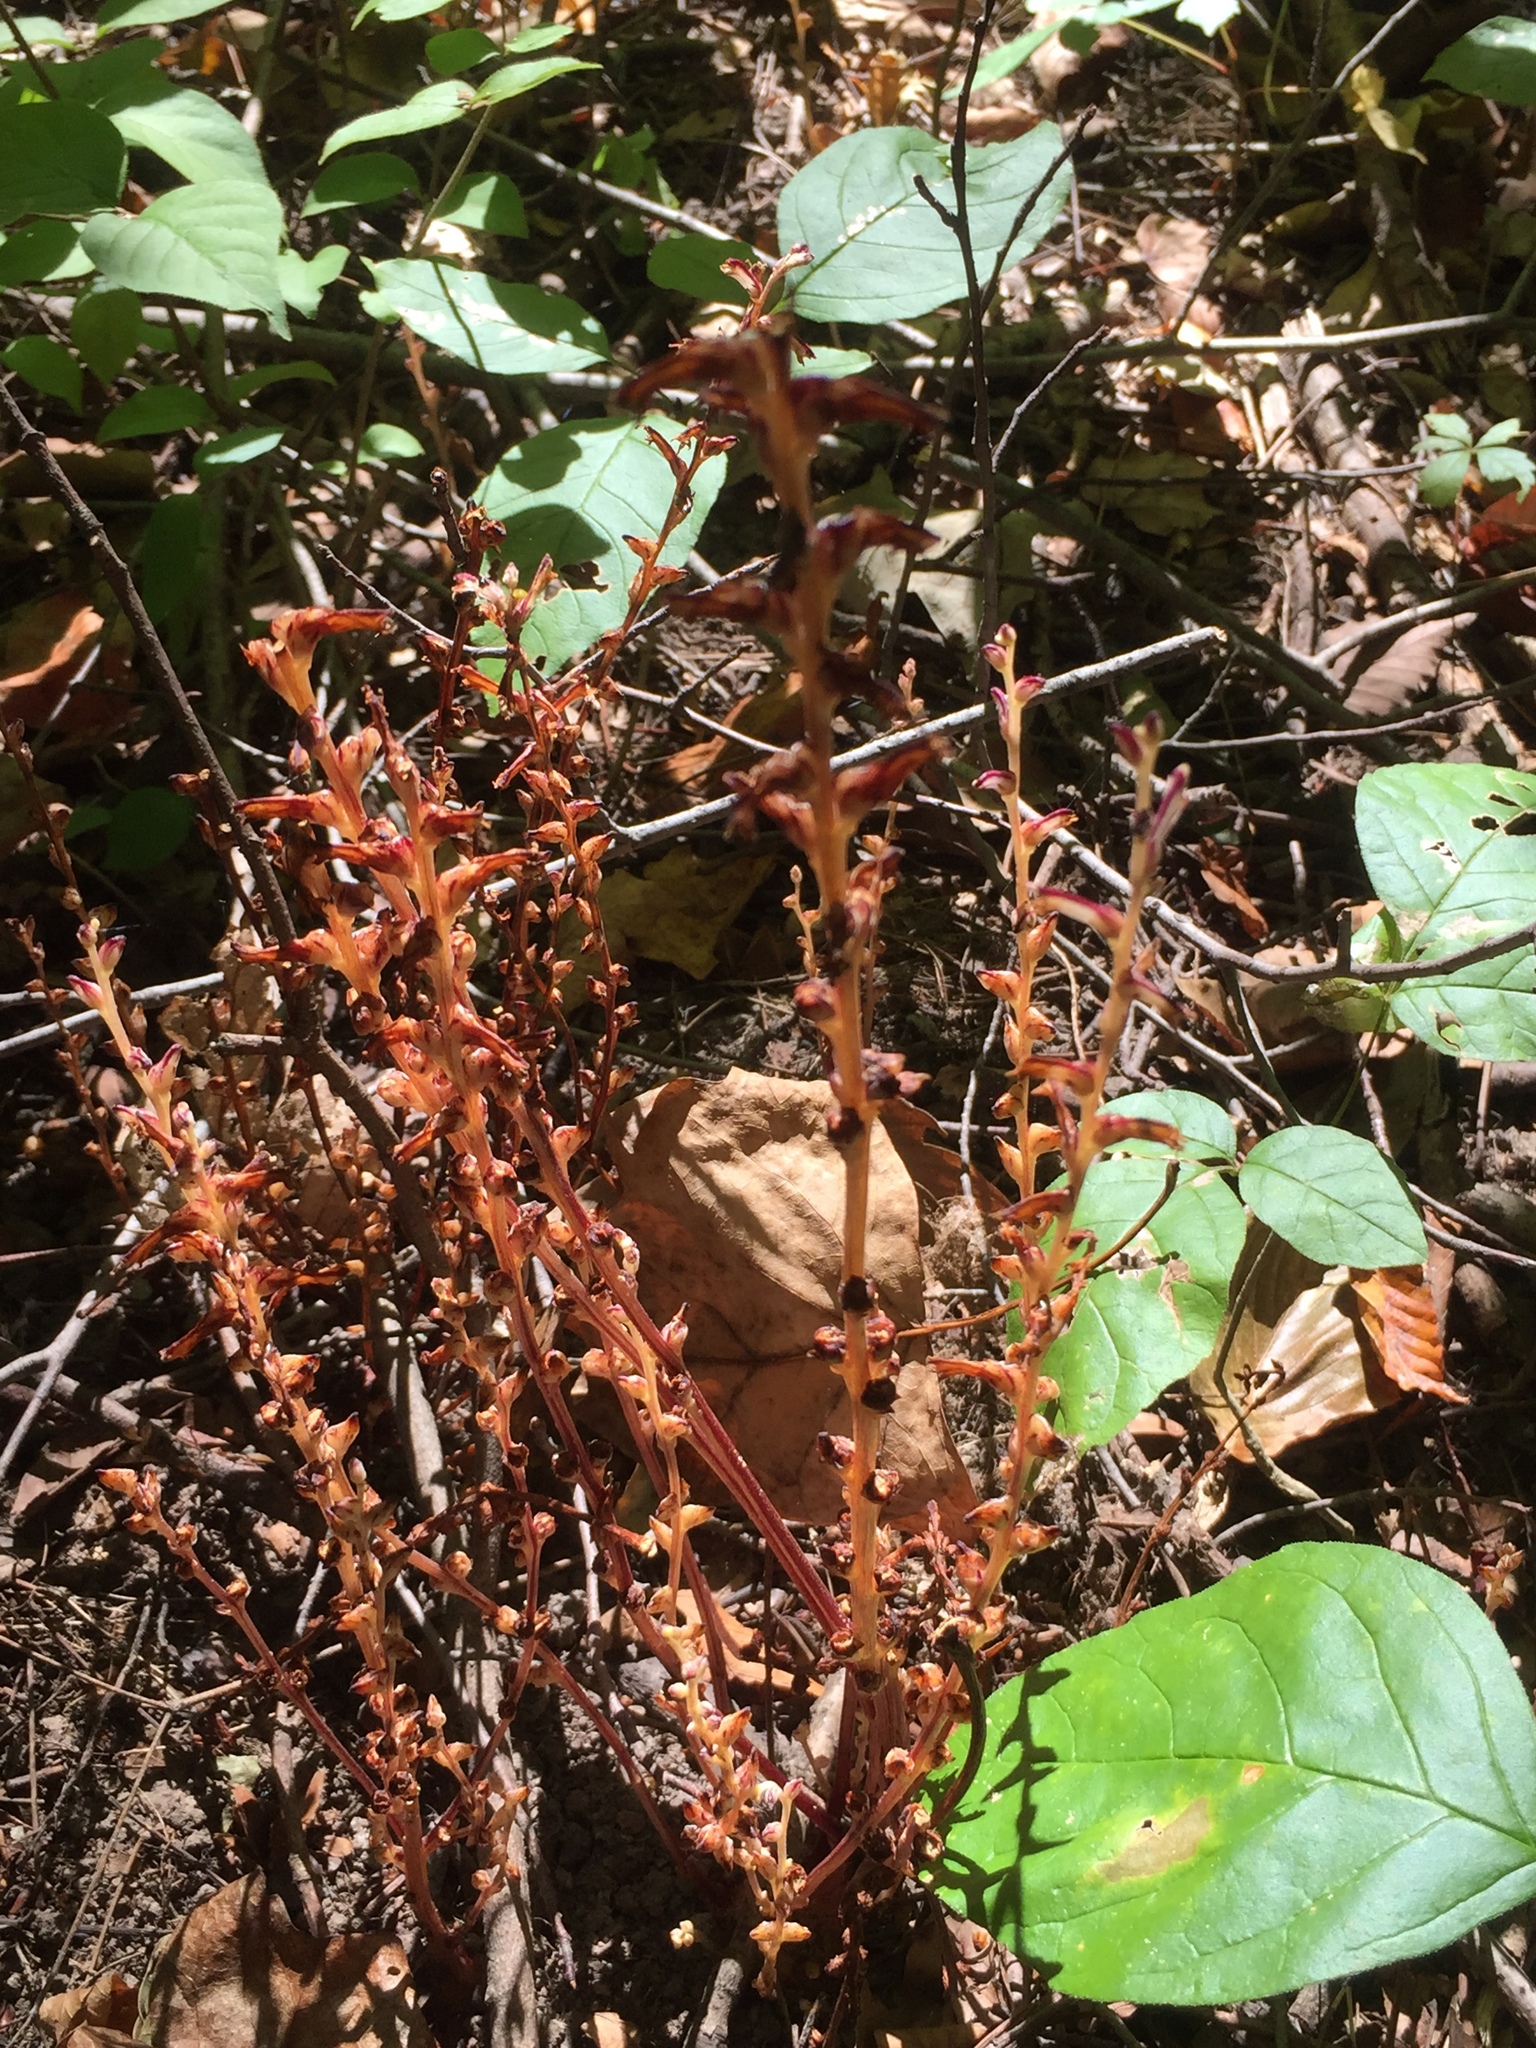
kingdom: Plantae
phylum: Tracheophyta
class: Magnoliopsida
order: Lamiales
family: Orobanchaceae
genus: Epifagus
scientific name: Epifagus virginiana
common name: Beechdrops
